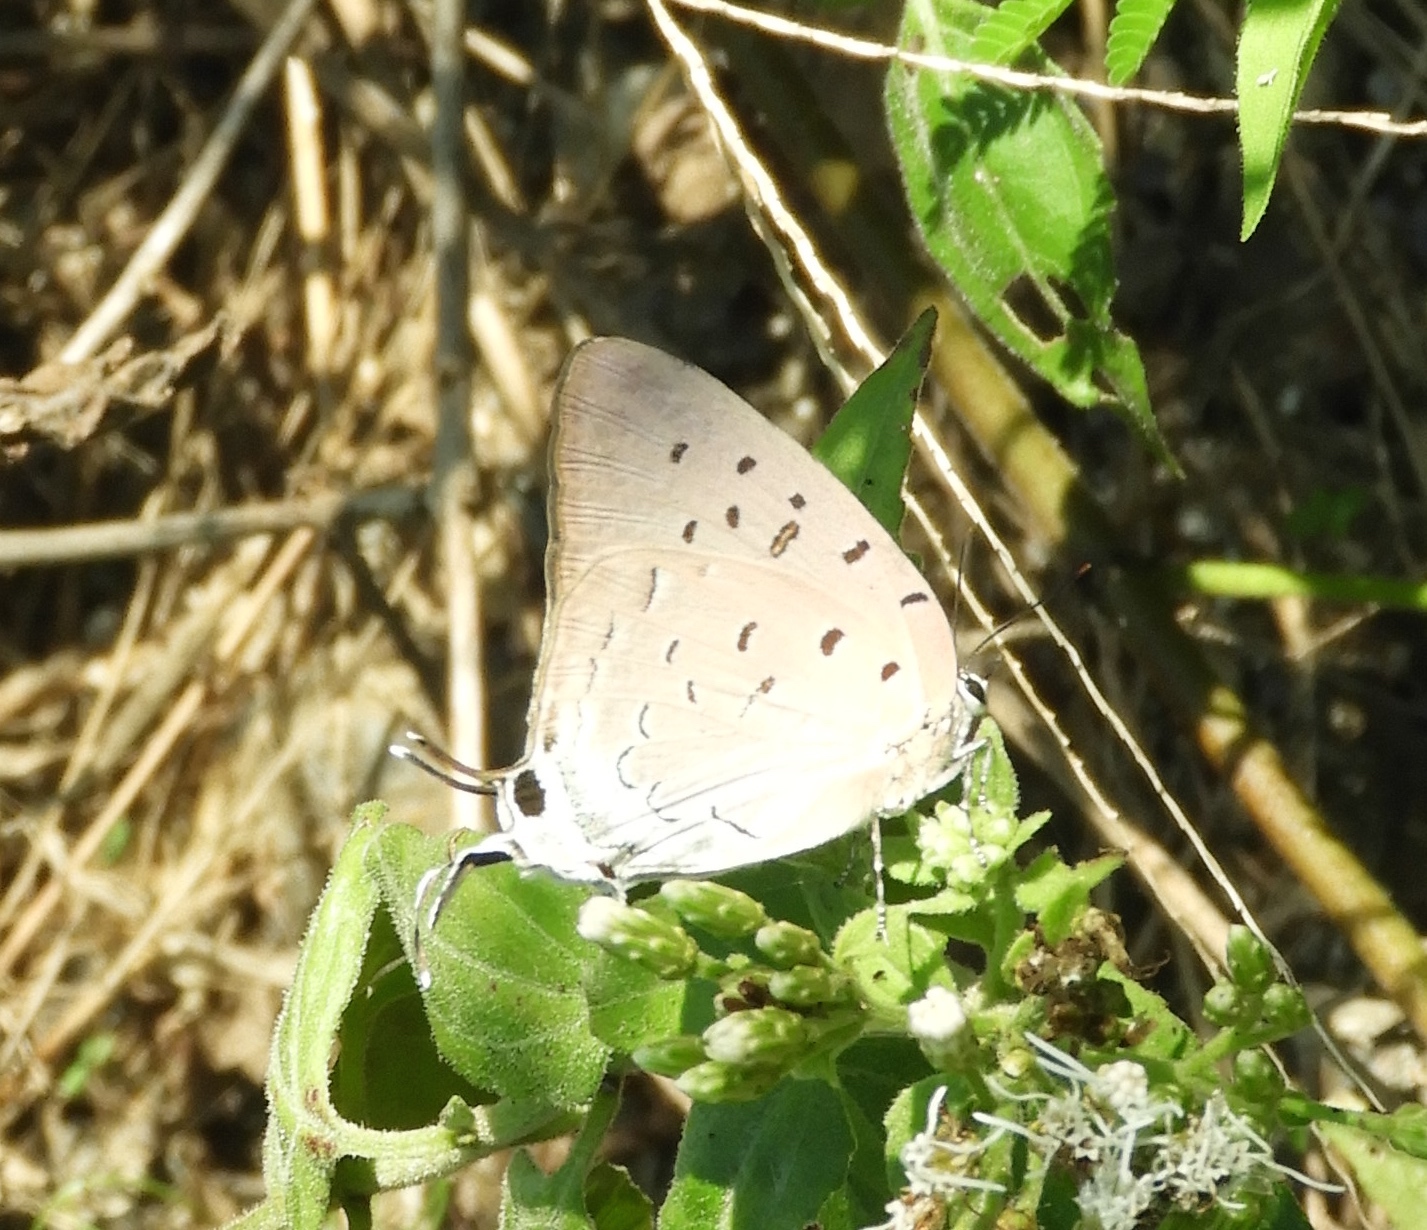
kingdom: Animalia
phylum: Arthropoda
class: Insecta
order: Lepidoptera
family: Lycaenidae
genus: Pseudolycaena
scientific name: Pseudolycaena damo
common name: Sky-blue hairstreak
